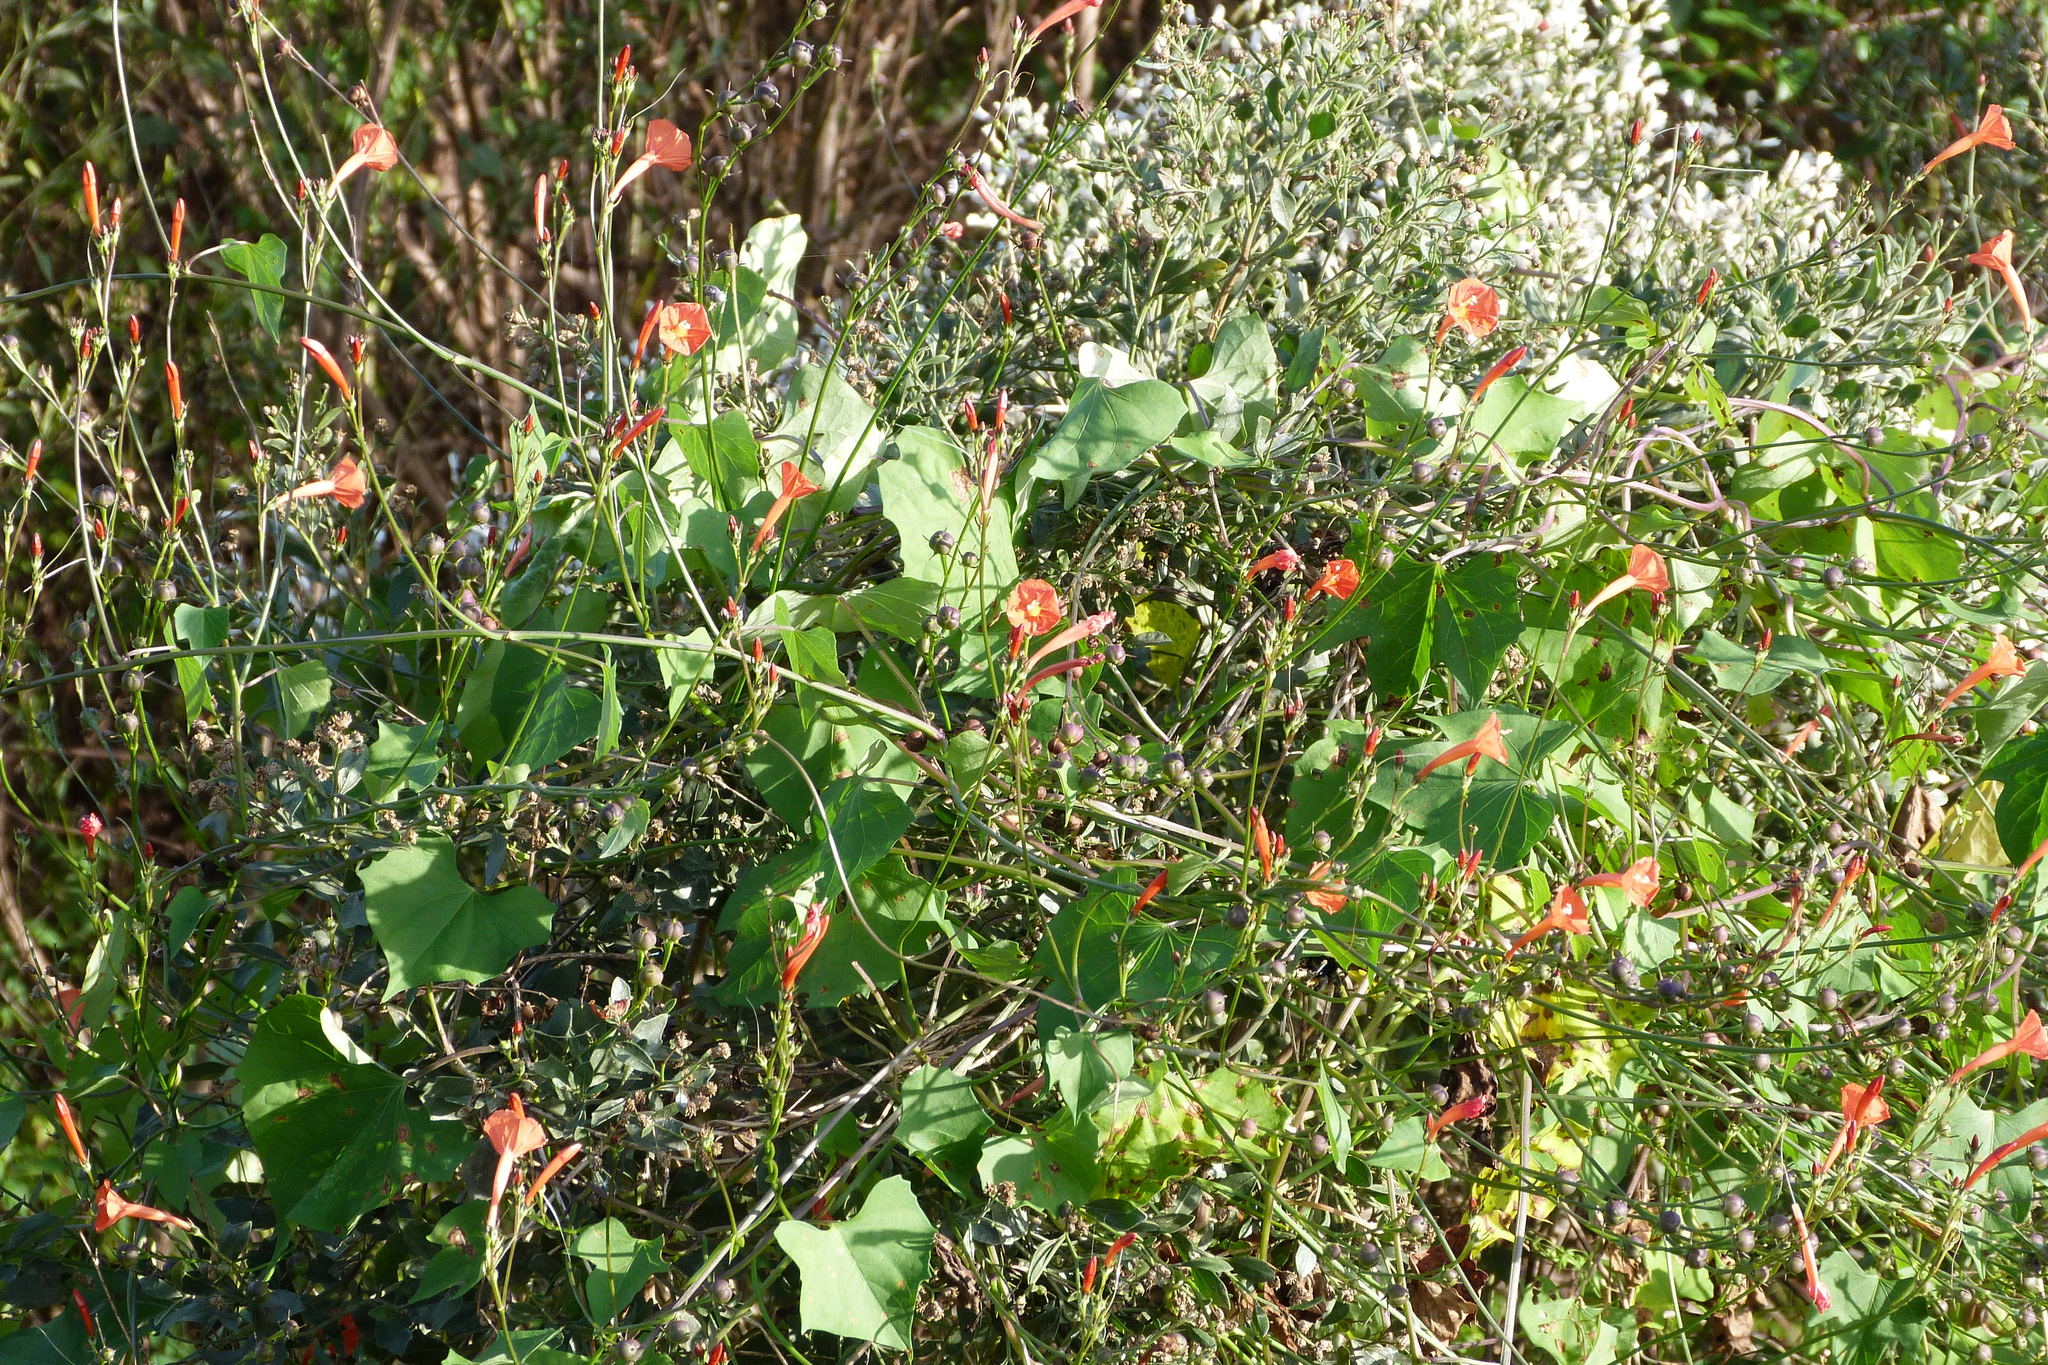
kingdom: Plantae
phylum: Tracheophyta
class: Magnoliopsida
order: Solanales
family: Convolvulaceae
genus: Ipomoea
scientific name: Ipomoea hederifolia
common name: Ivy-leaf morning-glory
